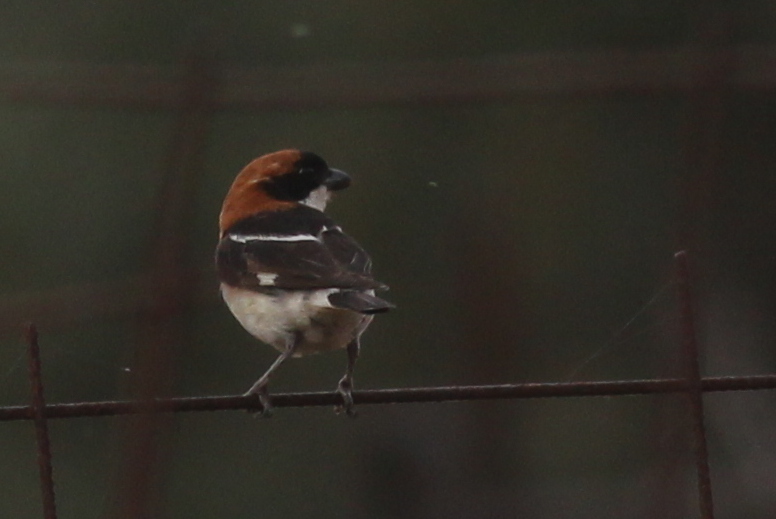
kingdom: Animalia
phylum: Chordata
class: Aves
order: Passeriformes
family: Laniidae
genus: Lanius
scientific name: Lanius senator
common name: Woodchat shrike
